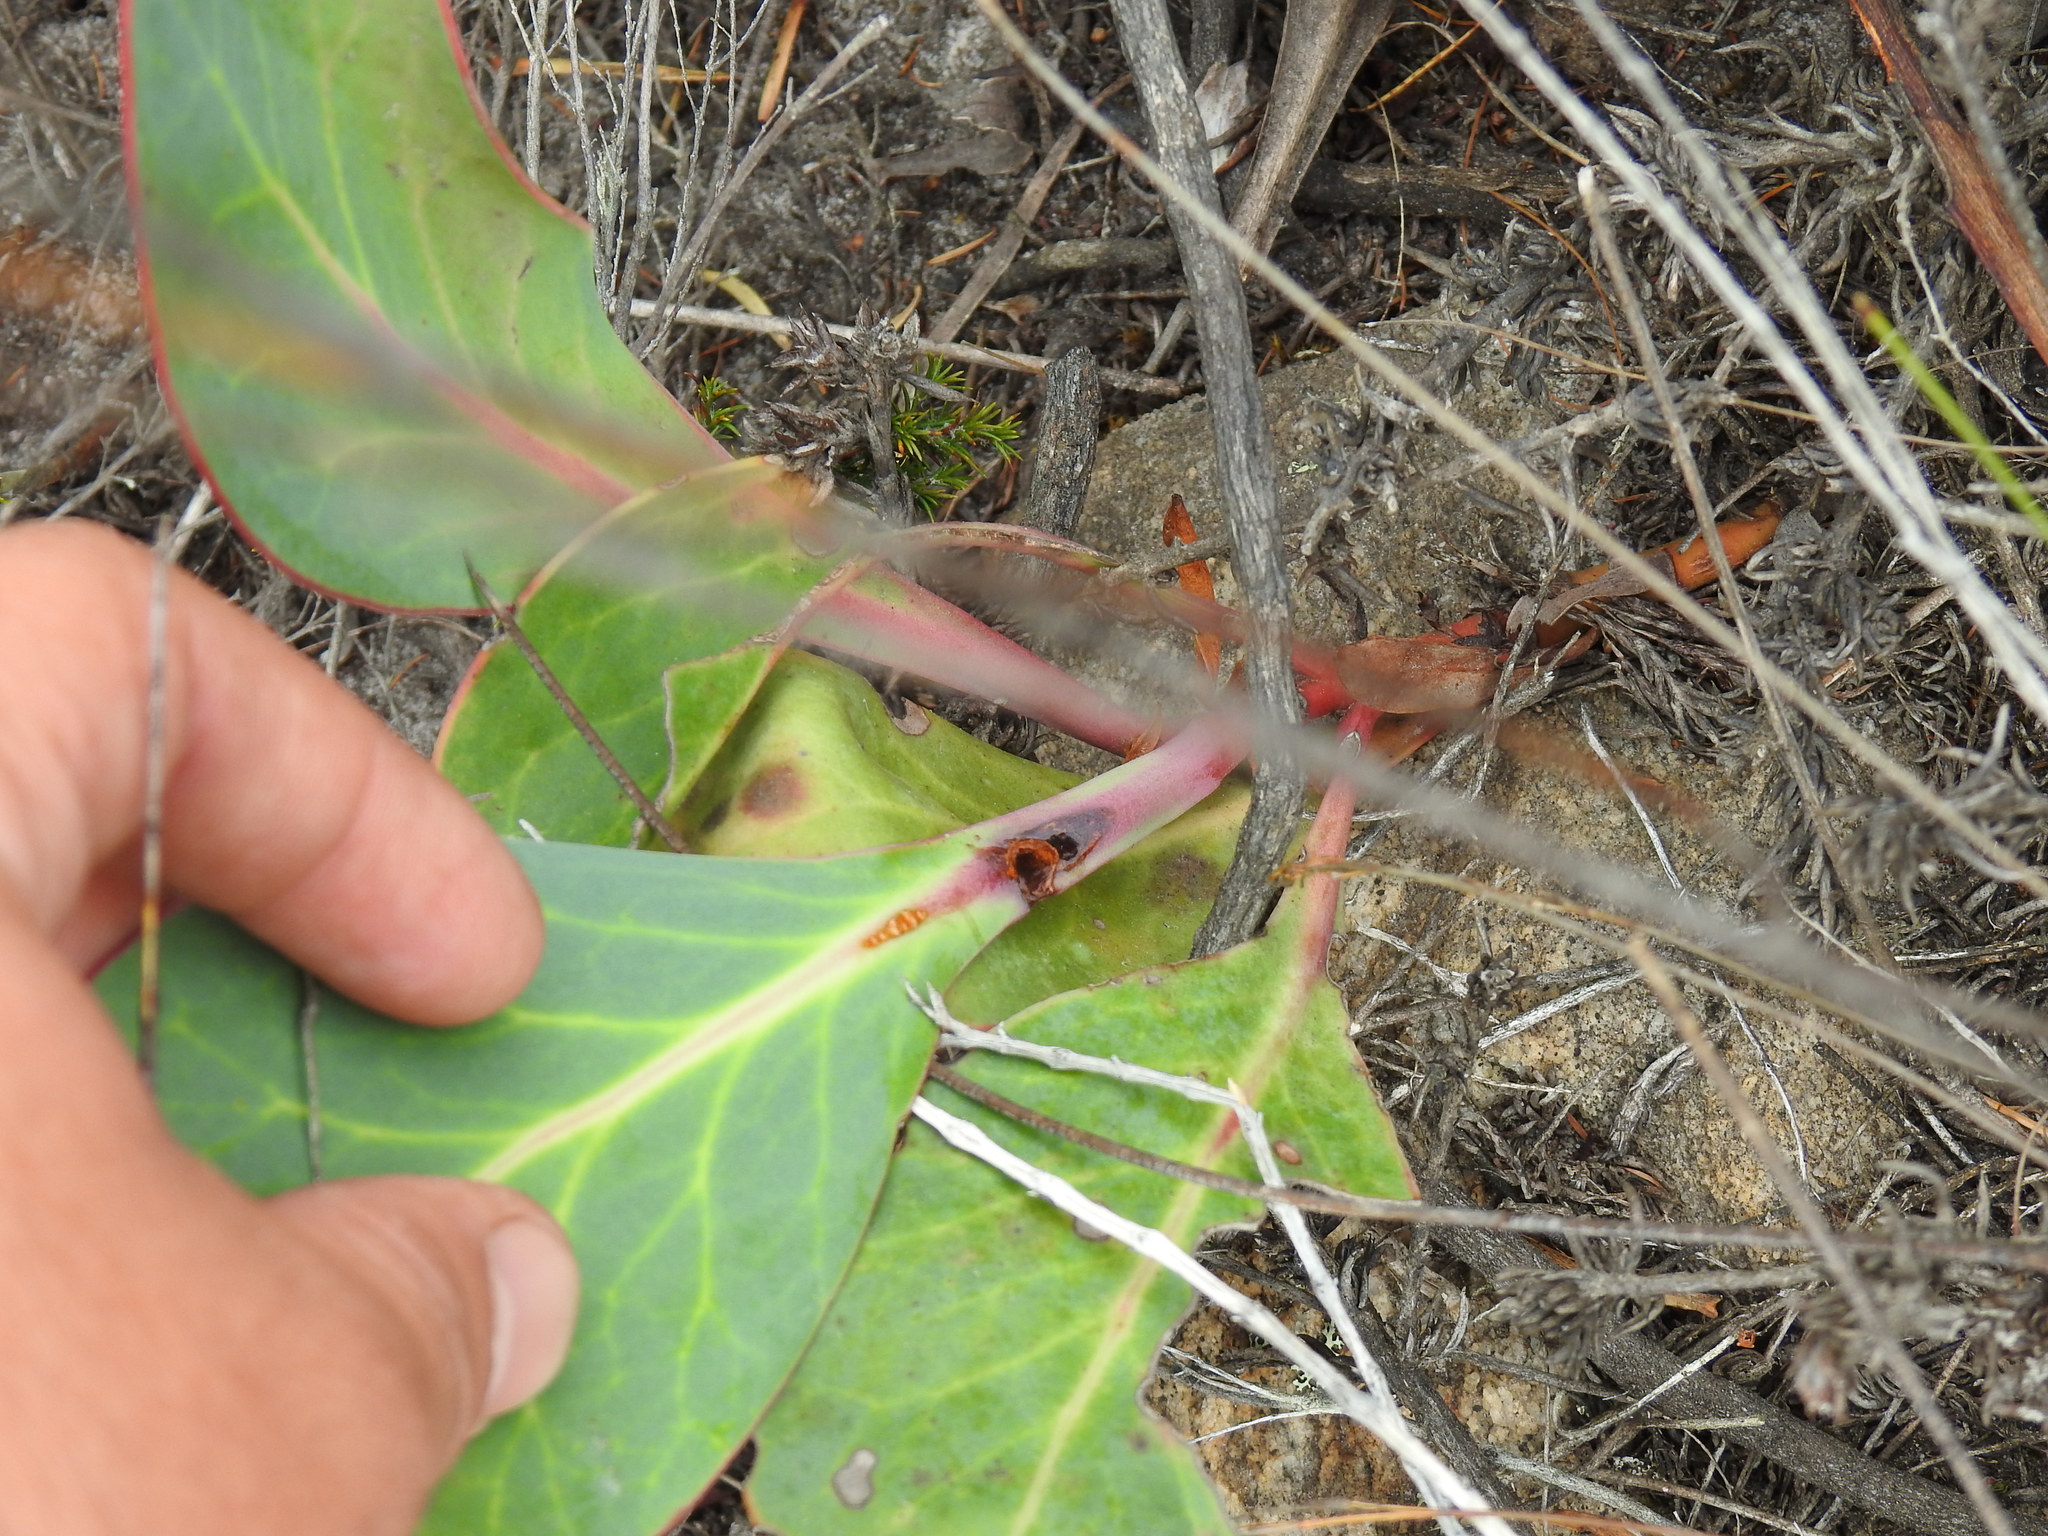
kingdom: Plantae
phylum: Tracheophyta
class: Magnoliopsida
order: Proteales
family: Proteaceae
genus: Protea
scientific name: Protea acaulos
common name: Common ground sugarbush
